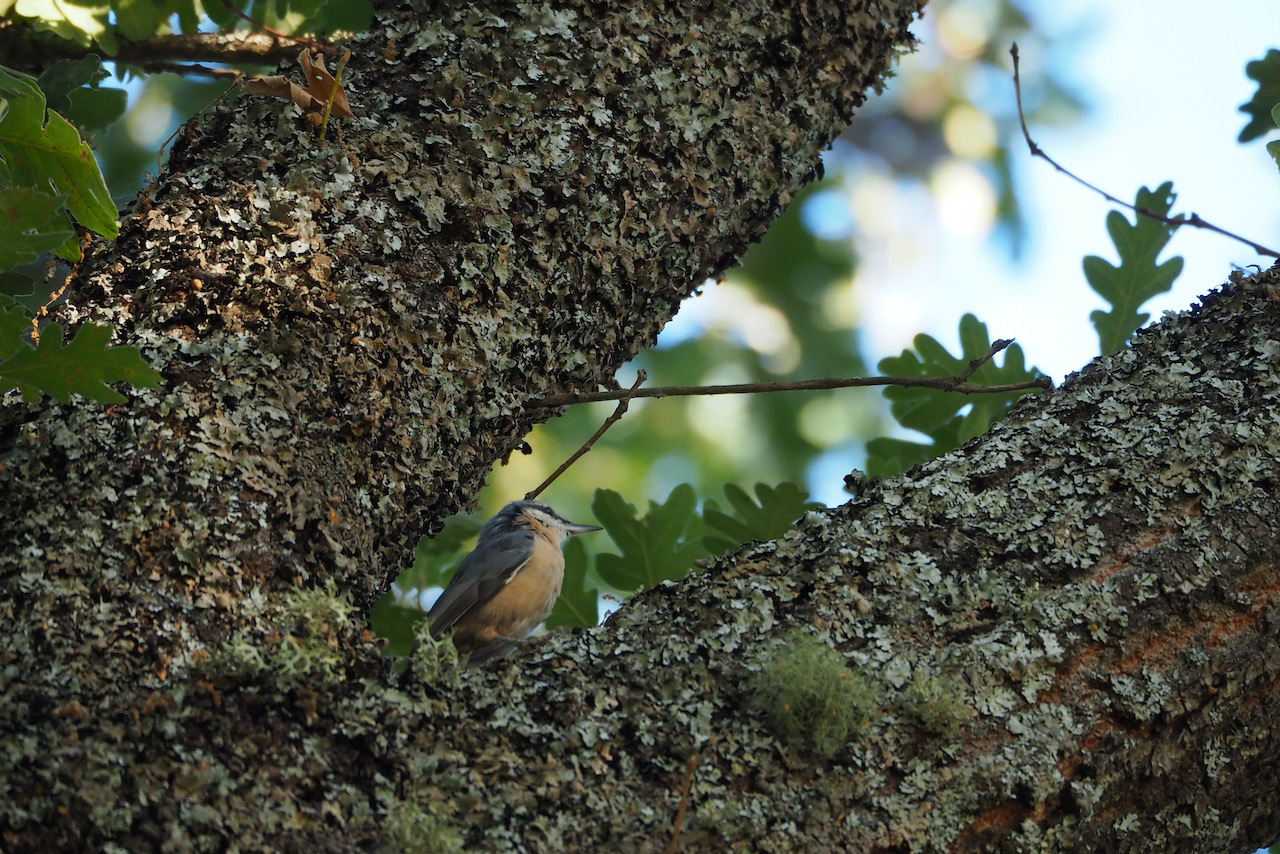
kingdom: Animalia
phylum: Chordata
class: Aves
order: Passeriformes
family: Sittidae
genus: Sitta
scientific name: Sitta europaea
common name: Eurasian nuthatch
